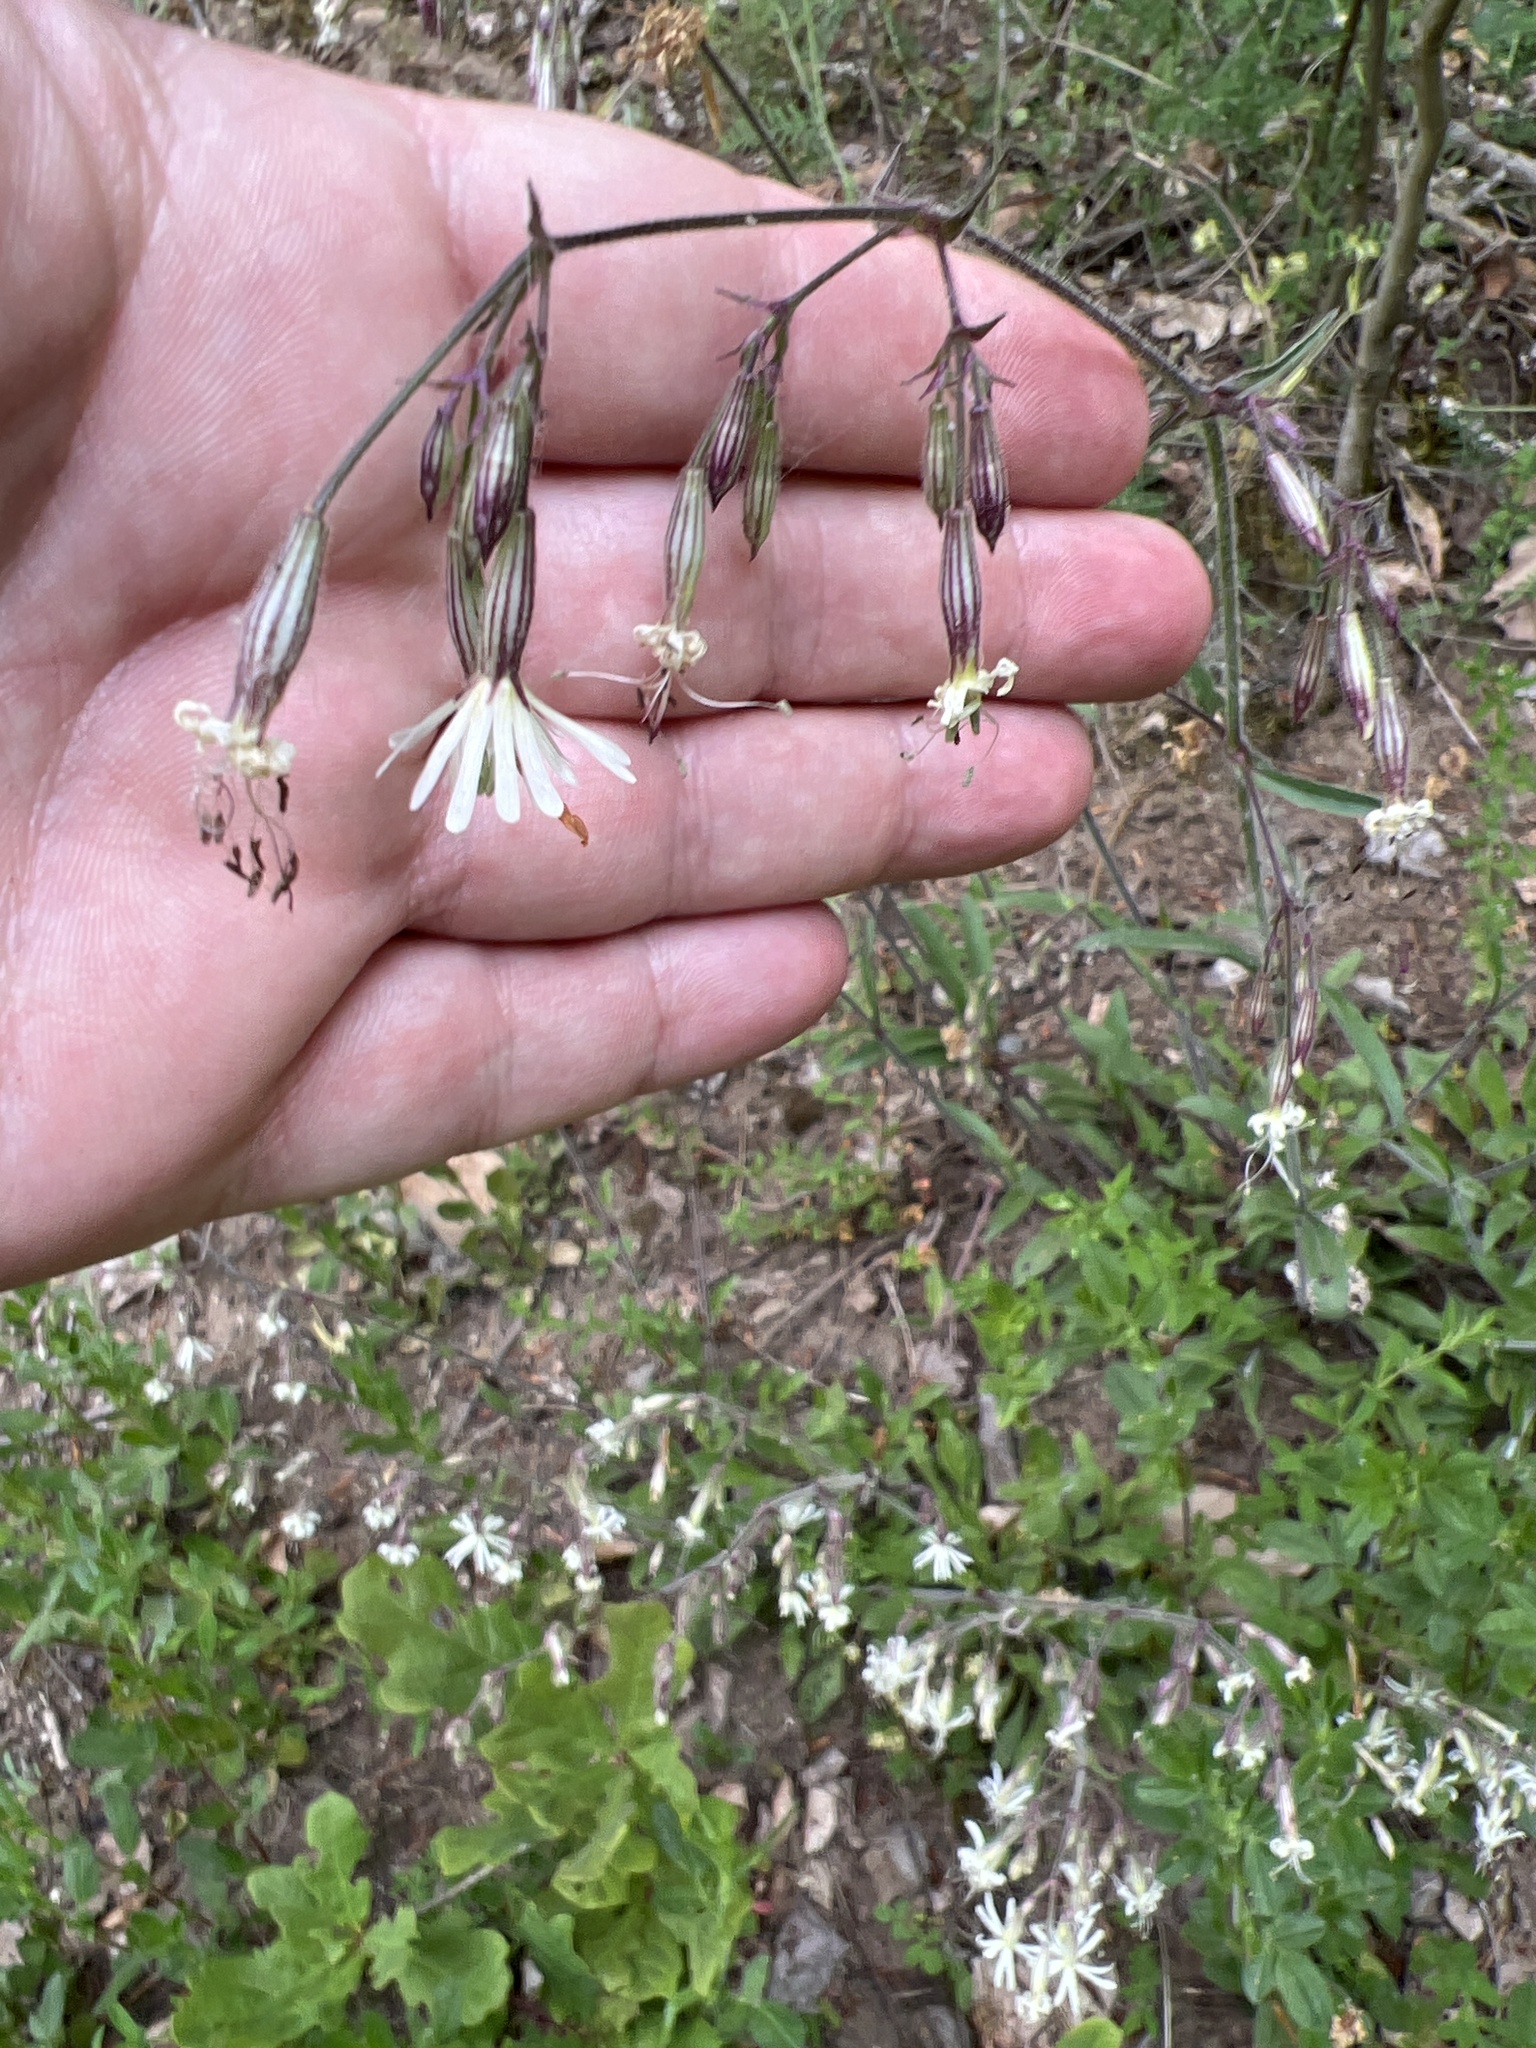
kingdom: Plantae
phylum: Tracheophyta
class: Magnoliopsida
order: Caryophyllales
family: Caryophyllaceae
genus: Silene
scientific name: Silene nutans
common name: Nottingham catchfly
